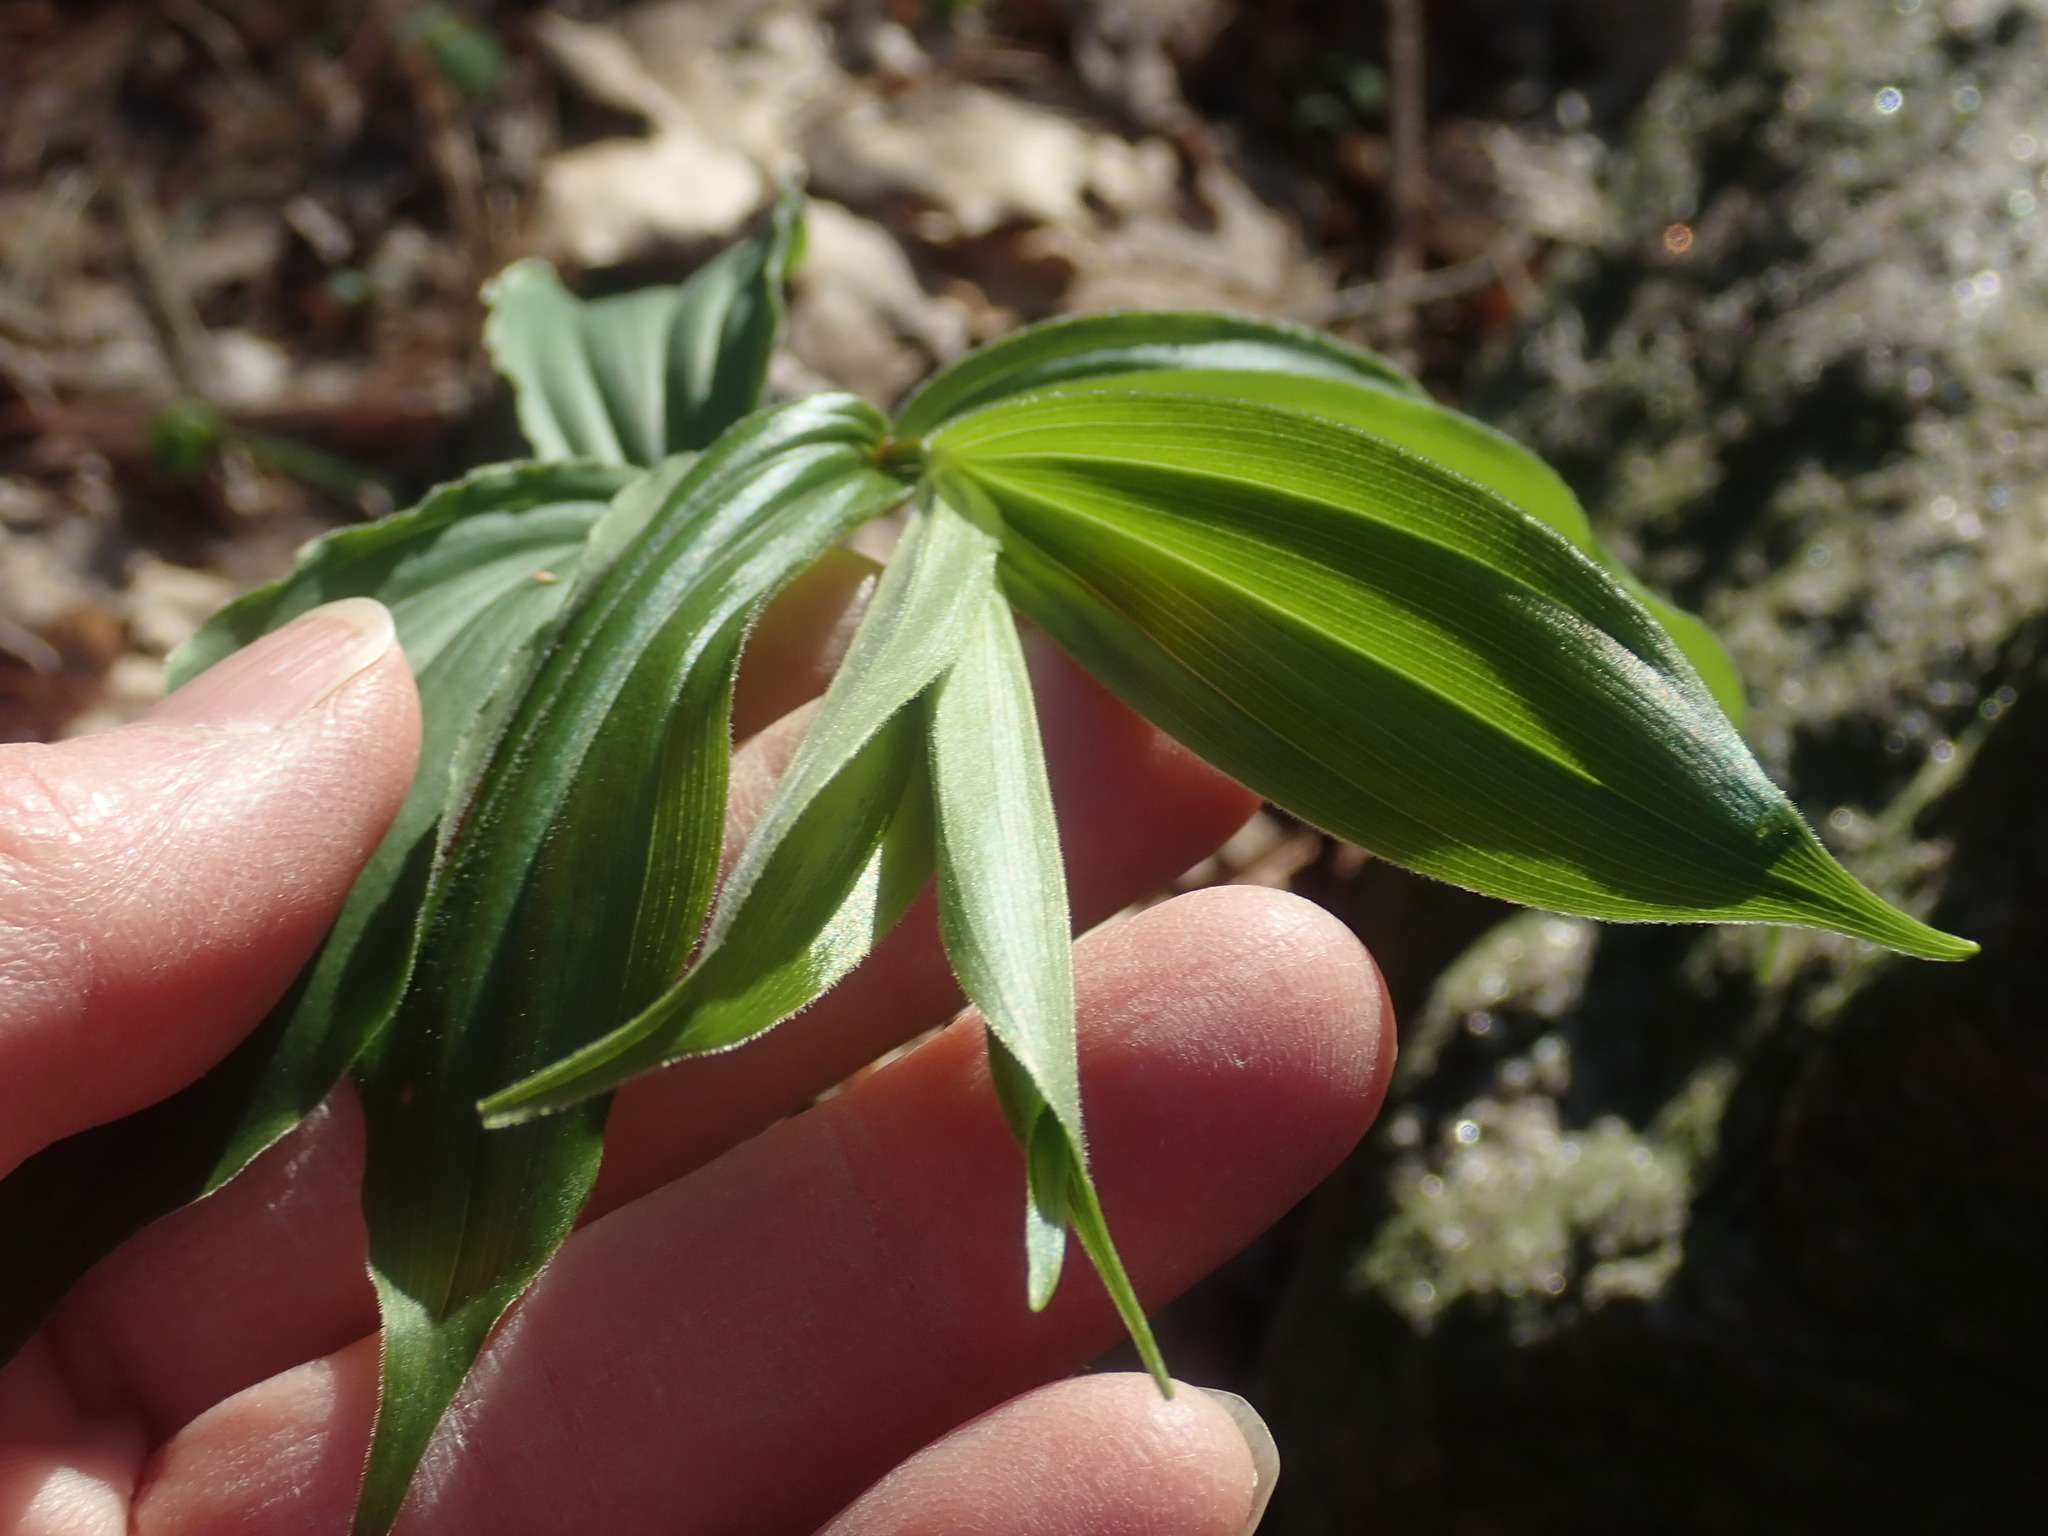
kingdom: Plantae
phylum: Tracheophyta
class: Liliopsida
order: Asparagales
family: Asparagaceae
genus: Maianthemum
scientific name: Maianthemum racemosum
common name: False spikenard
